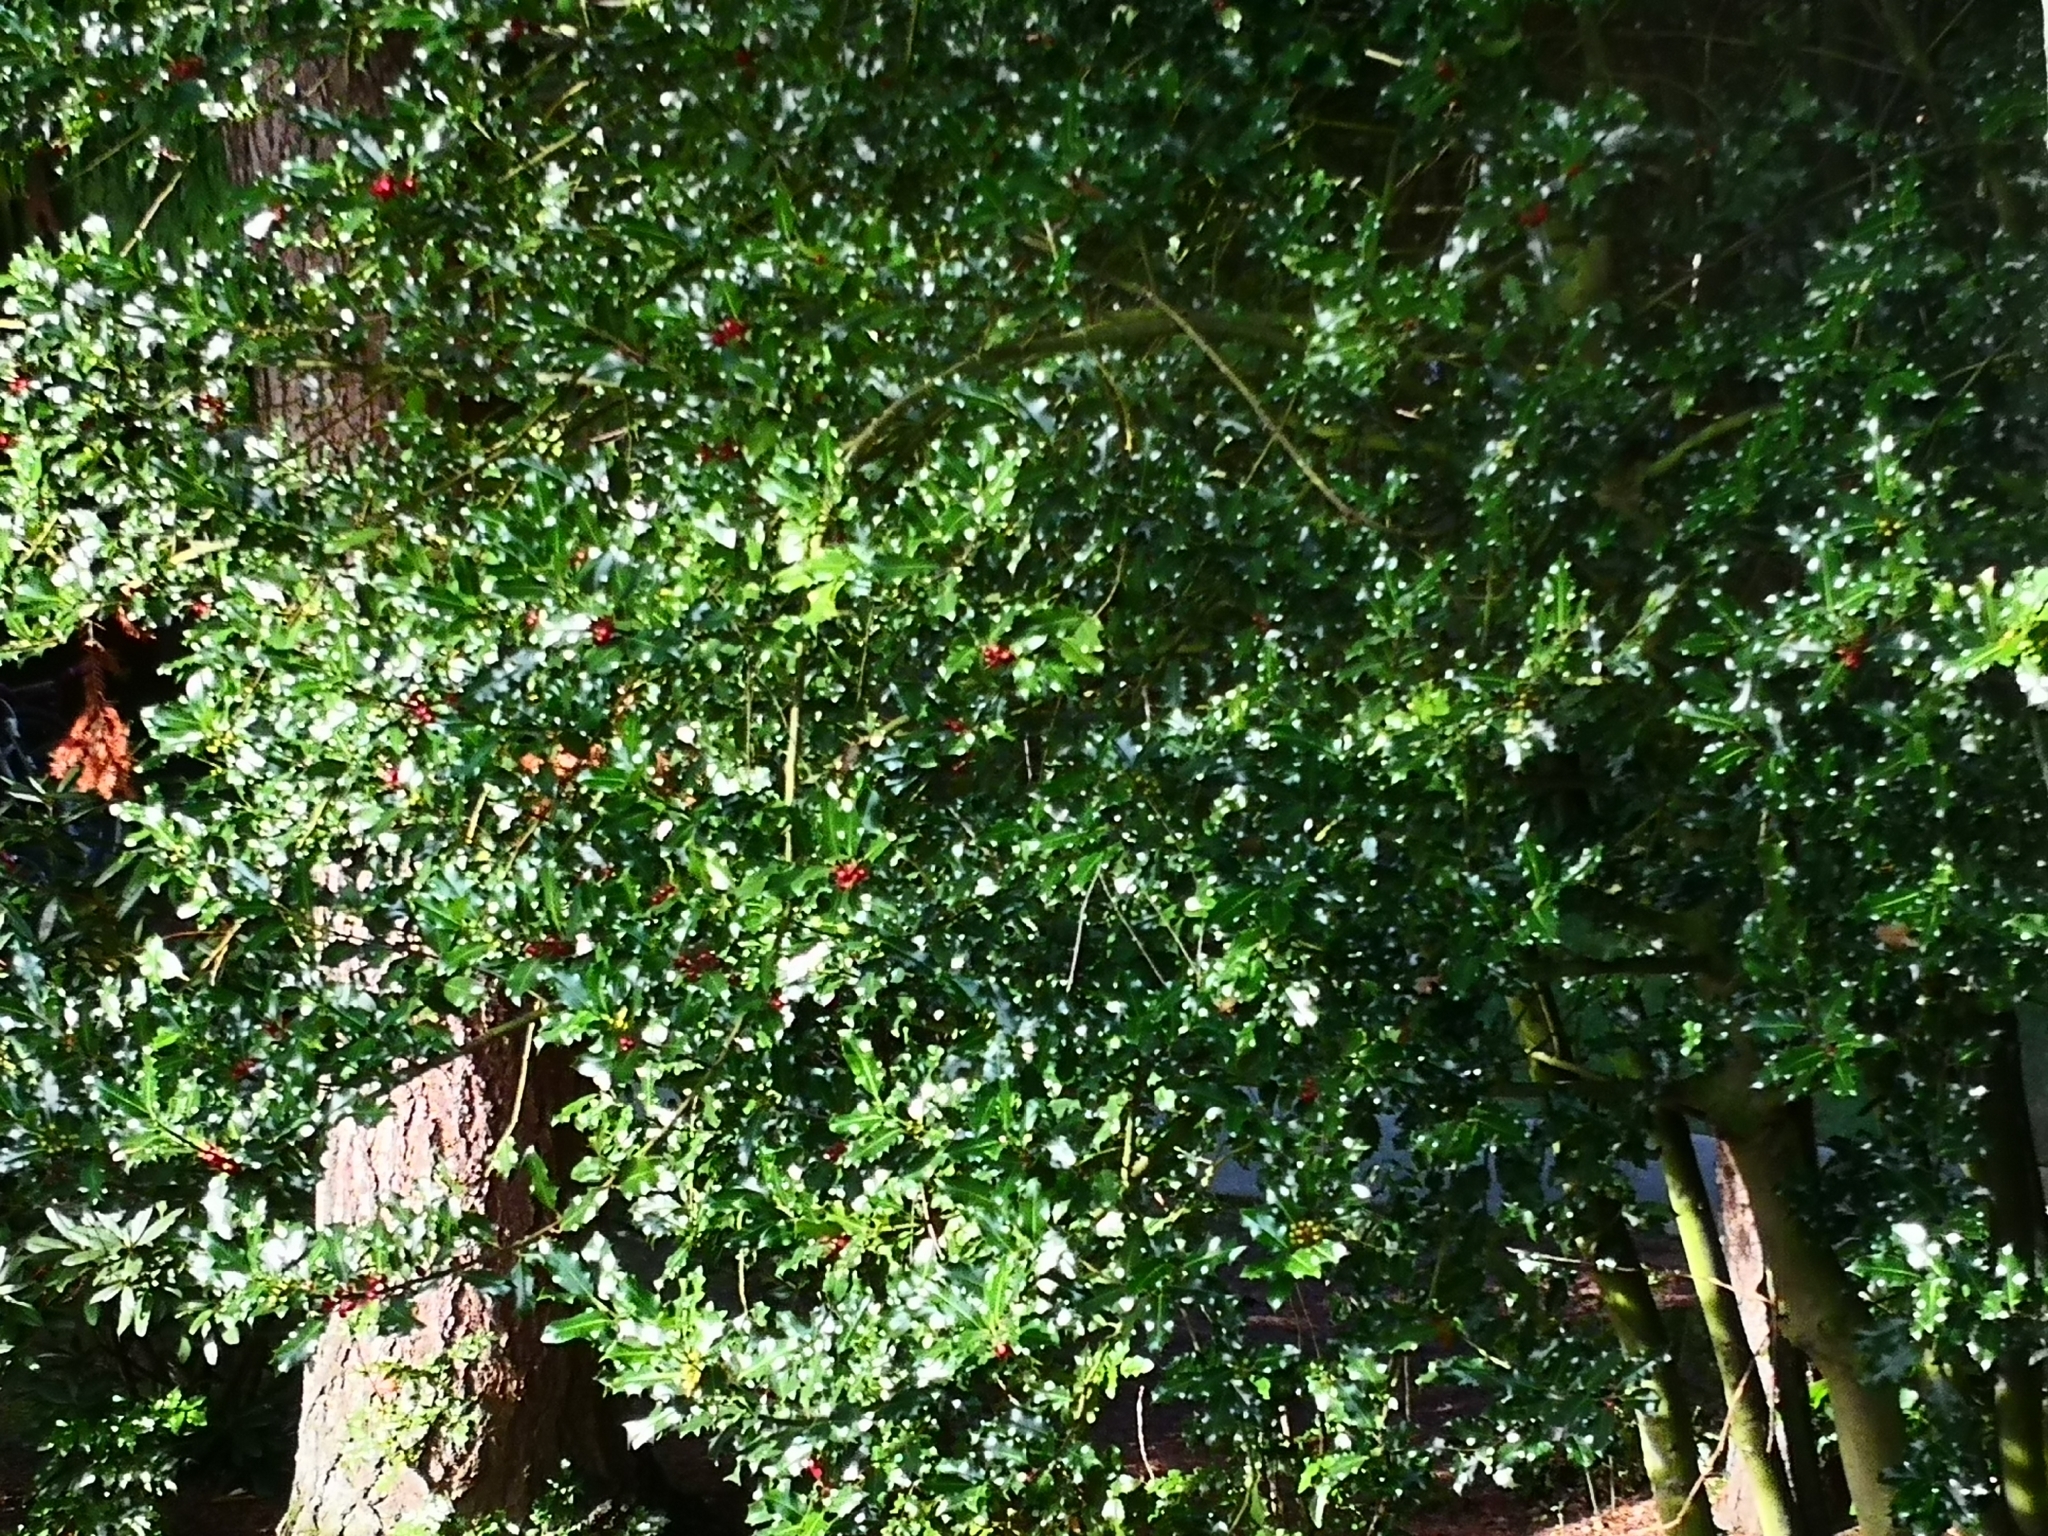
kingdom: Plantae
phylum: Tracheophyta
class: Magnoliopsida
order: Aquifoliales
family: Aquifoliaceae
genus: Ilex
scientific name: Ilex aquifolium
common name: English holly
